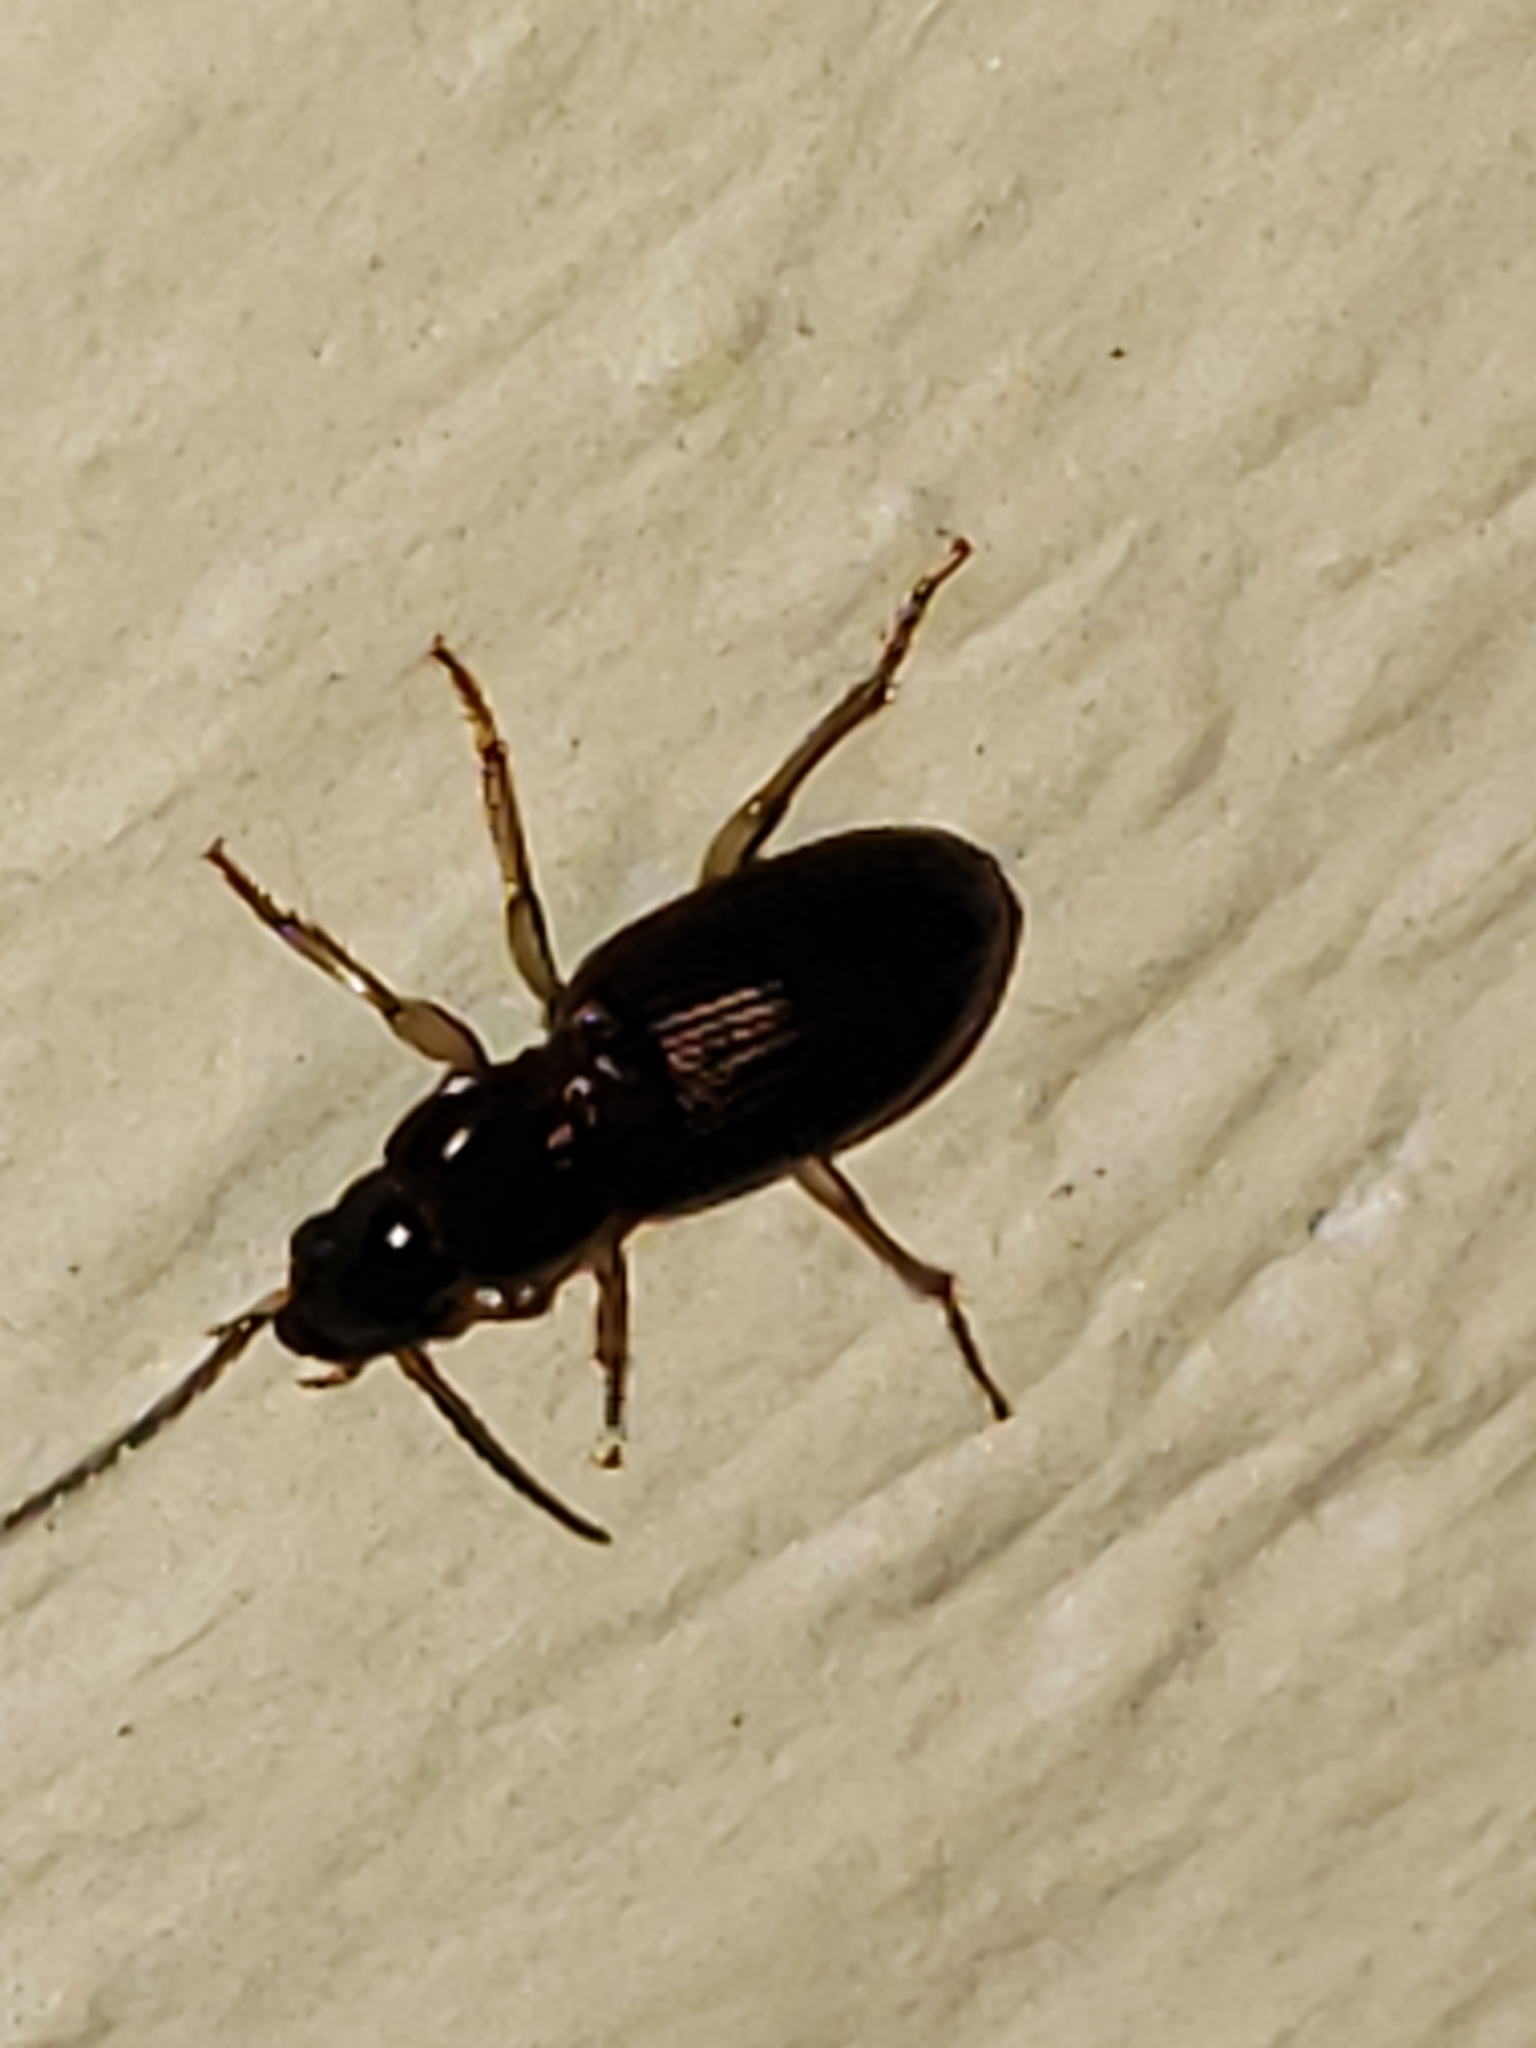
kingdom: Animalia
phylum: Arthropoda
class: Insecta
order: Coleoptera
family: Carabidae
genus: Stenolophus
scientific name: Stenolophus ochropezus
